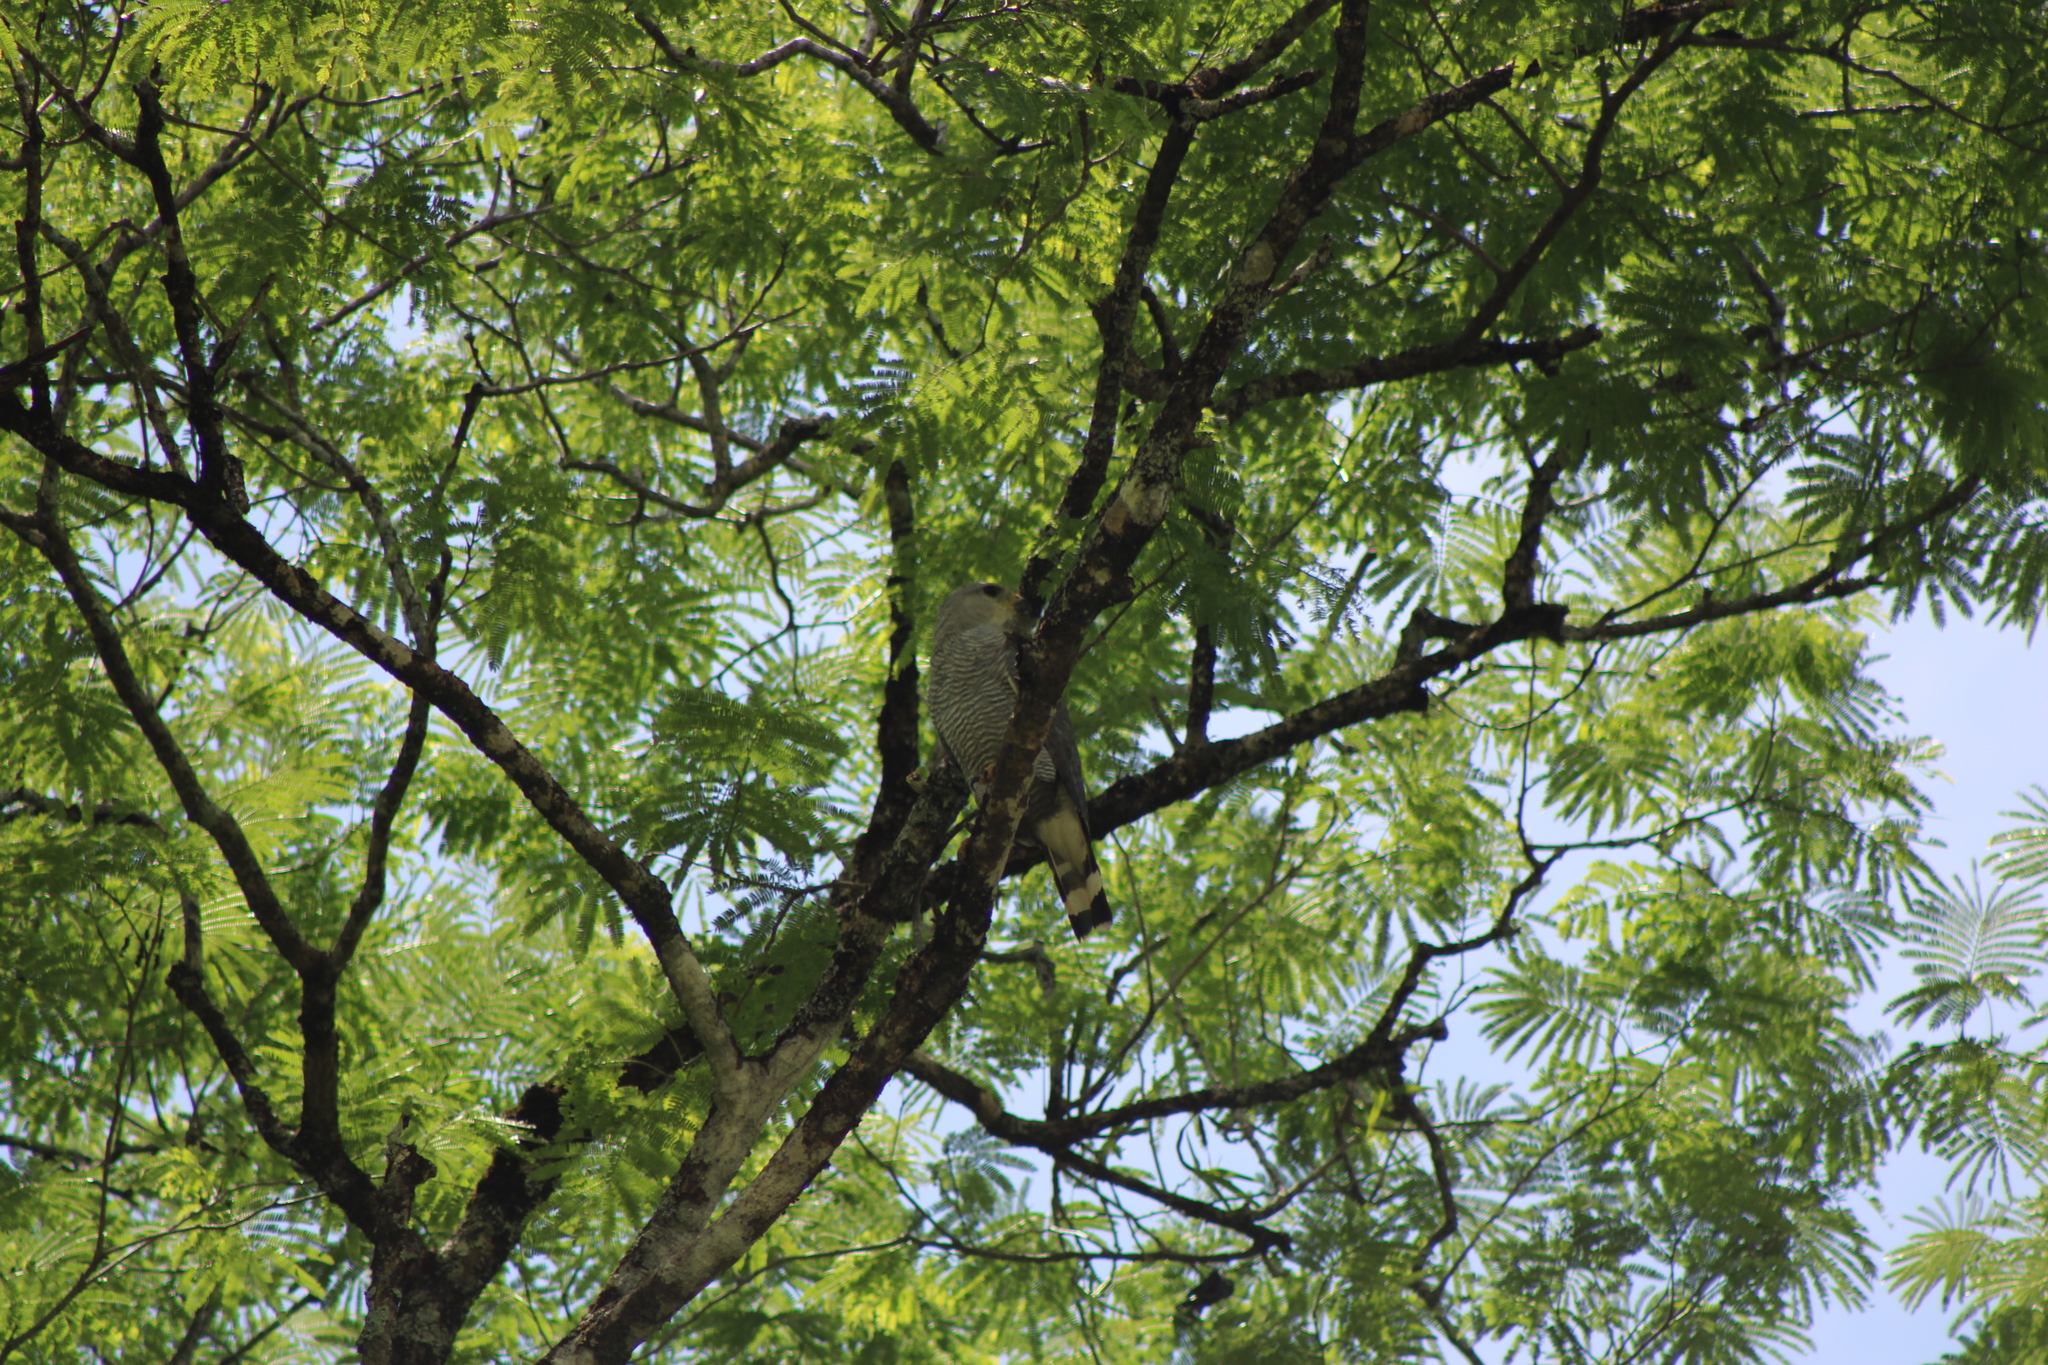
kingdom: Animalia
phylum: Chordata
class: Aves
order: Accipitriformes
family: Accipitridae
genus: Buteo
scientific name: Buteo nitidus
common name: Grey-lined hawk
